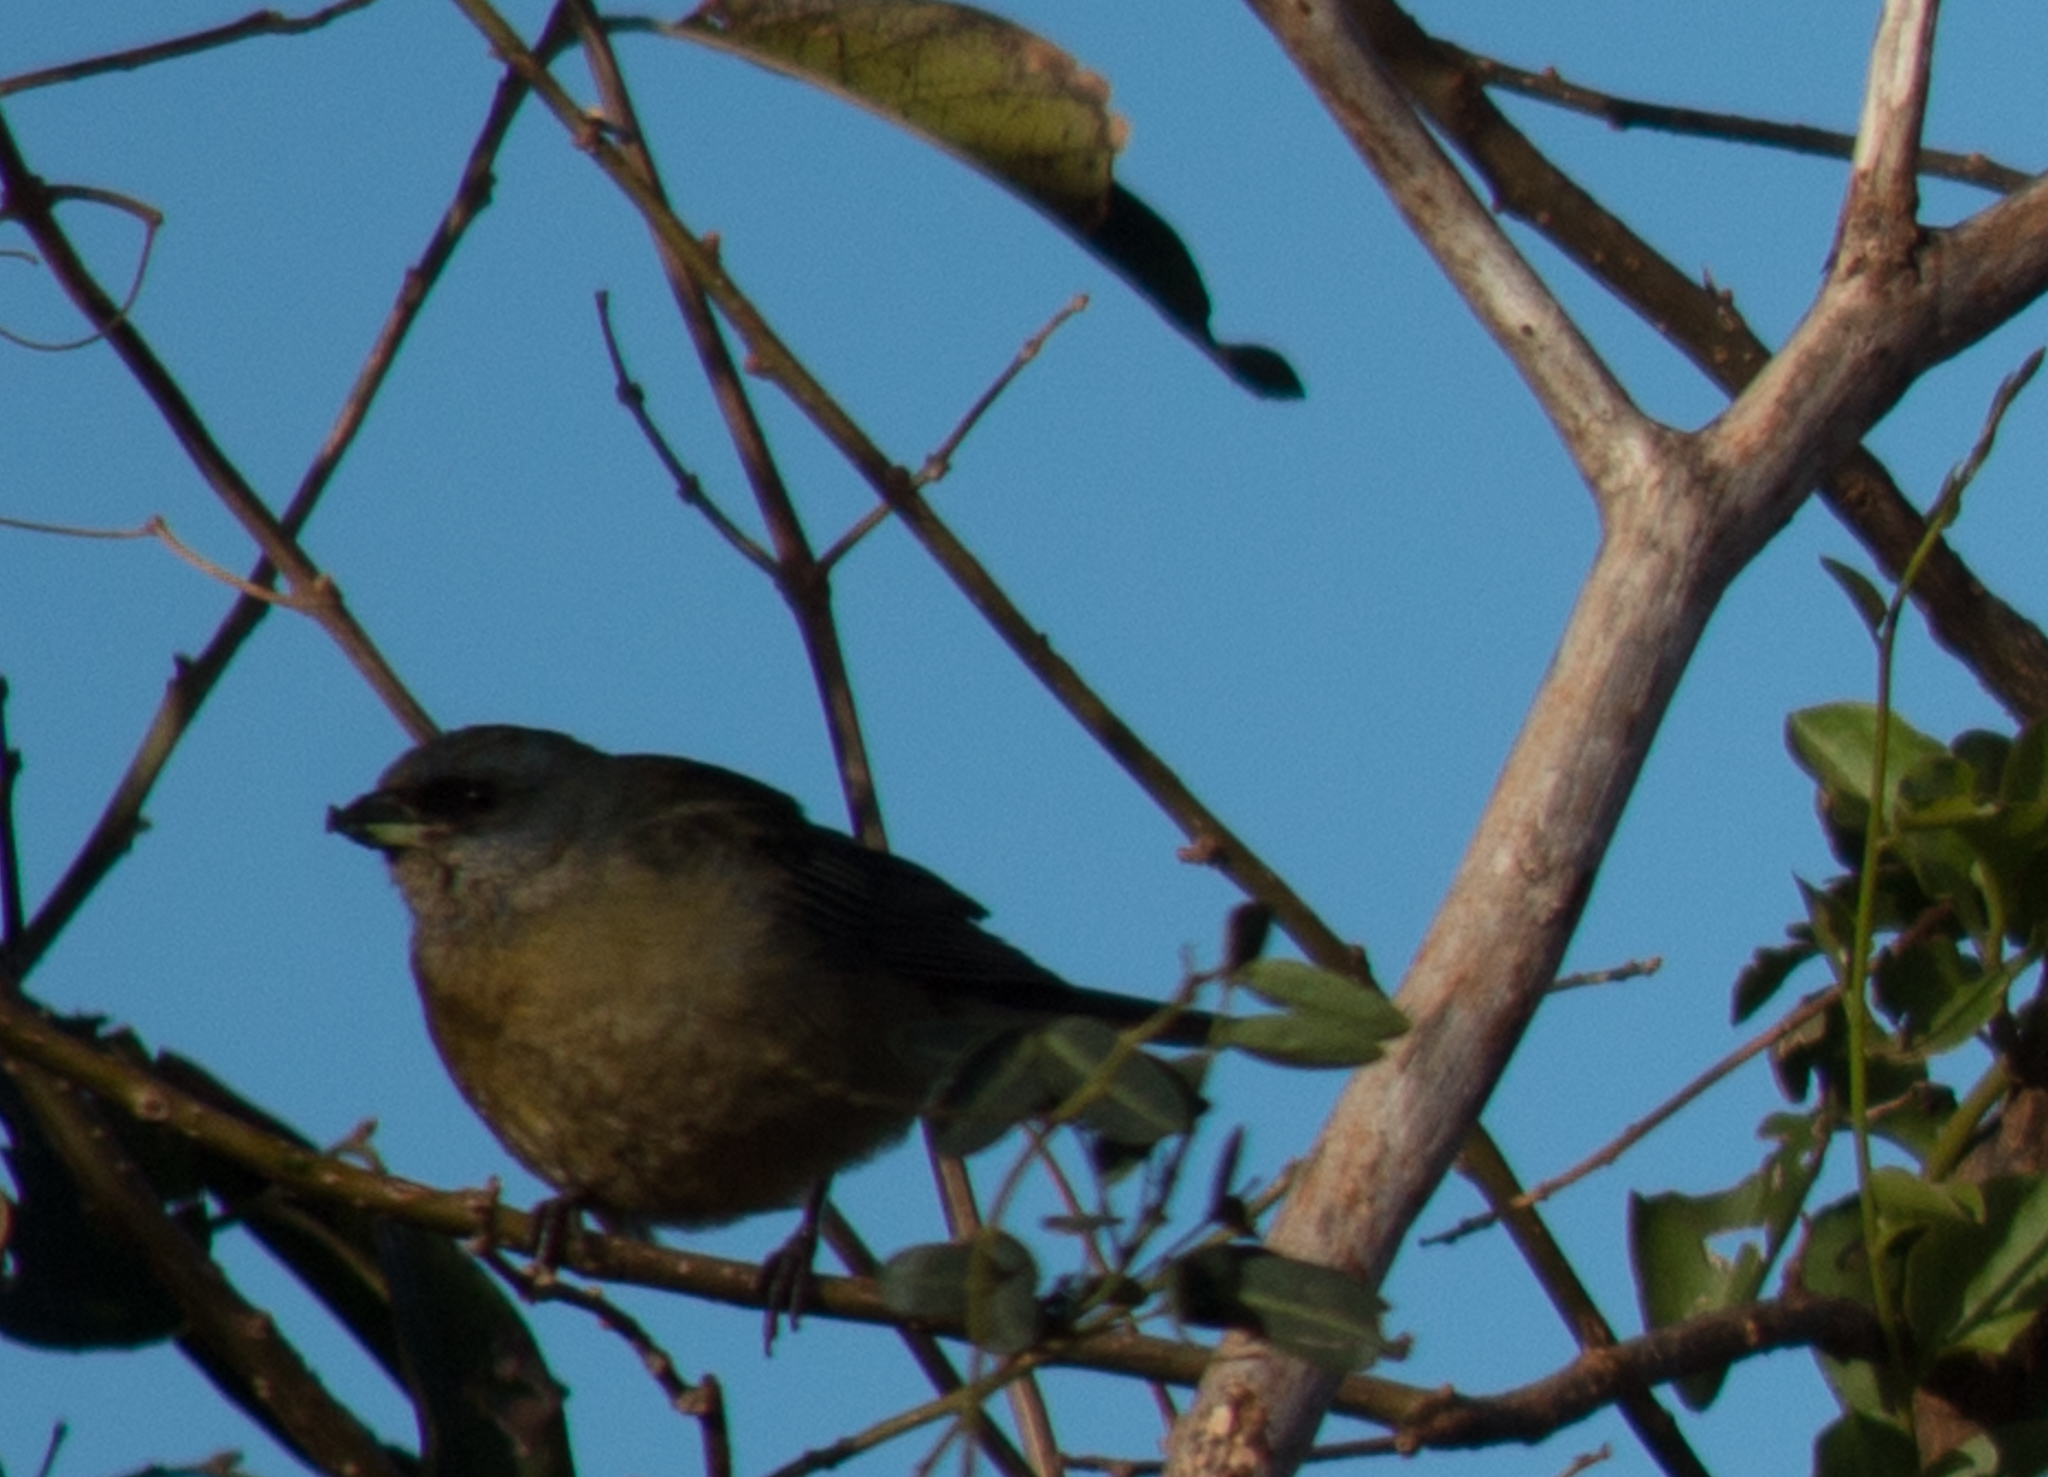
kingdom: Animalia
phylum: Chordata
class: Aves
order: Passeriformes
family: Thraupidae
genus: Rauenia
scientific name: Rauenia bonariensis
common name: Blue-and-yellow tanager
